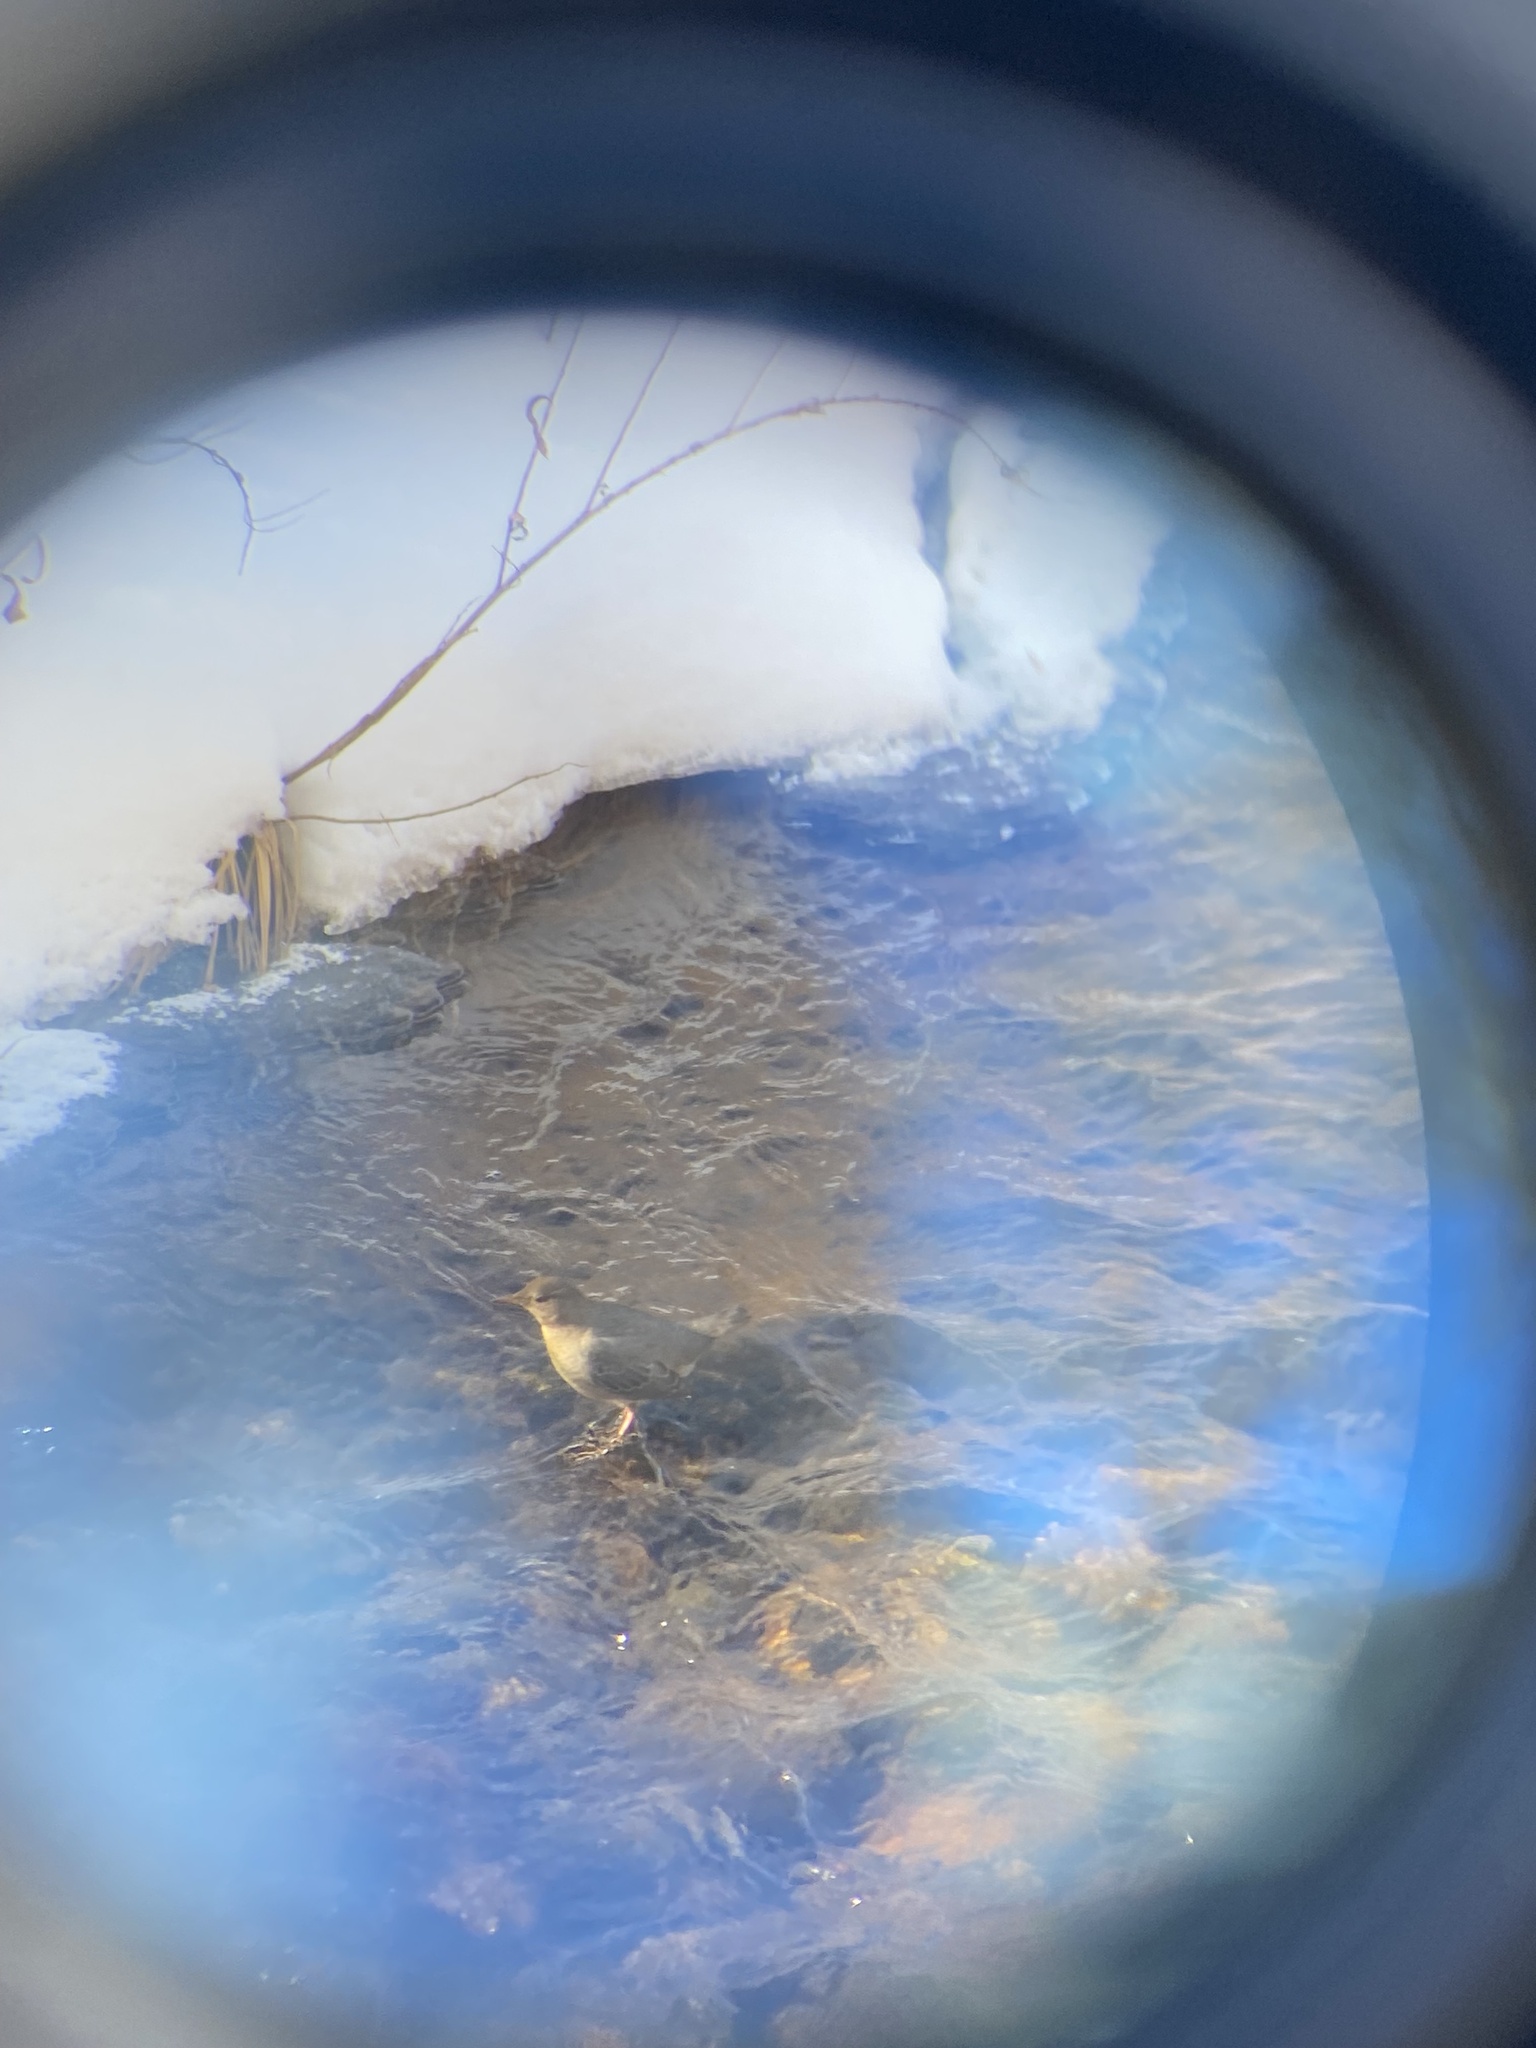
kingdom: Animalia
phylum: Chordata
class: Aves
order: Passeriformes
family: Cinclidae
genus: Cinclus
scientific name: Cinclus mexicanus
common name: American dipper
